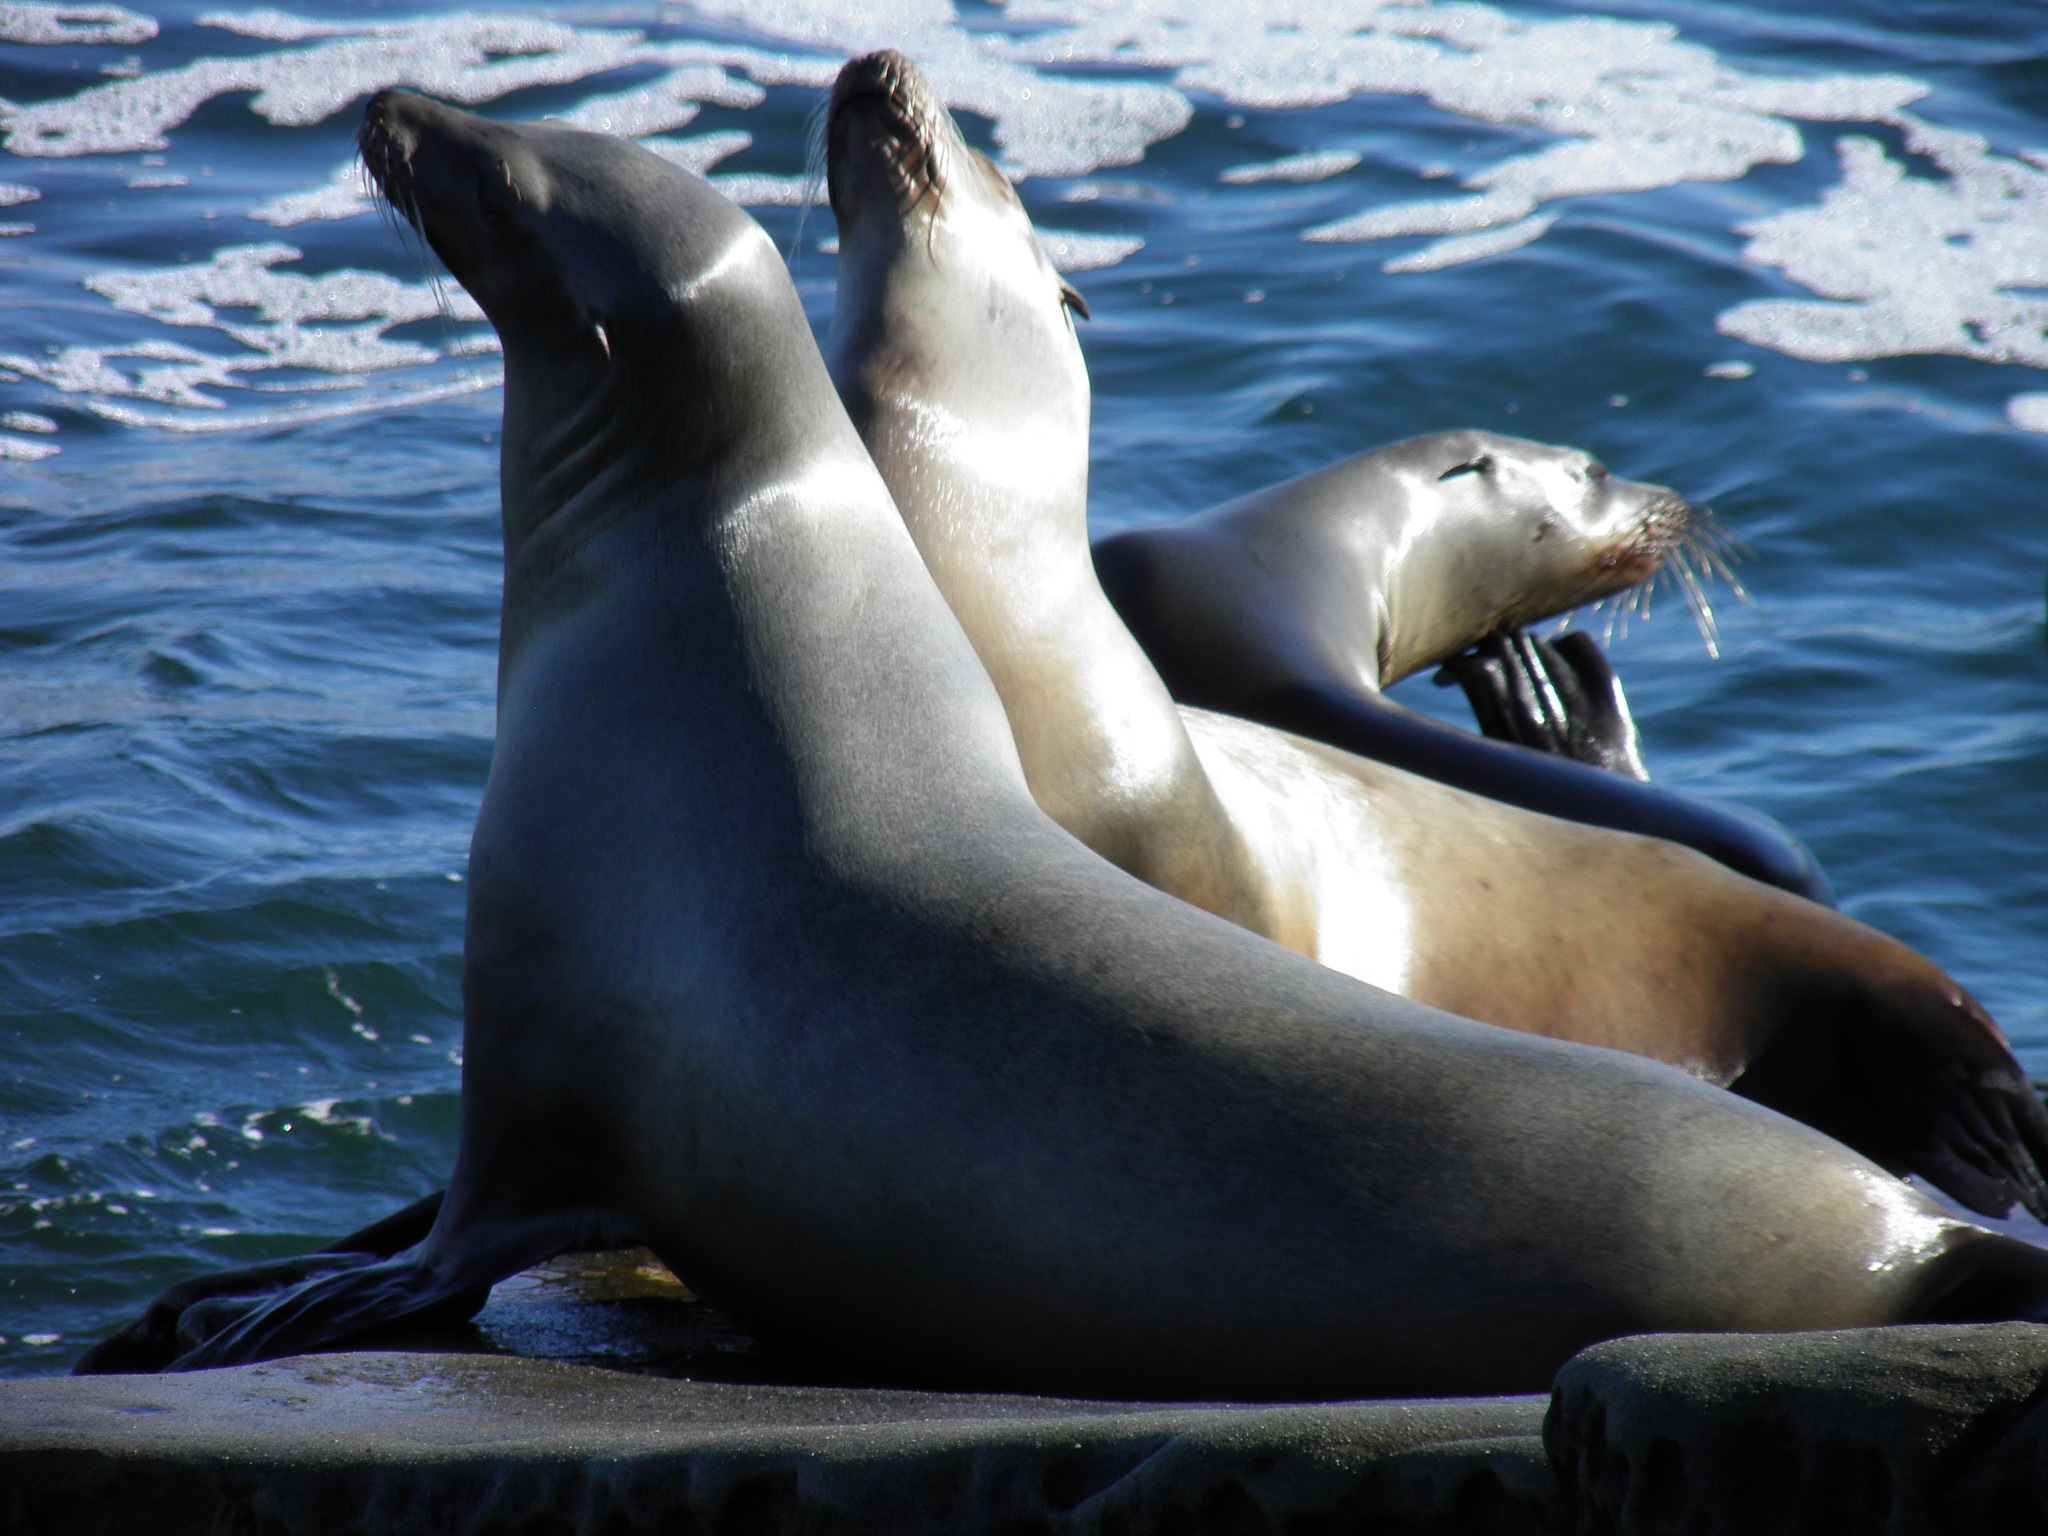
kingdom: Animalia
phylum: Chordata
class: Mammalia
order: Carnivora
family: Otariidae
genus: Zalophus
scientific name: Zalophus californianus
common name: California sea lion
